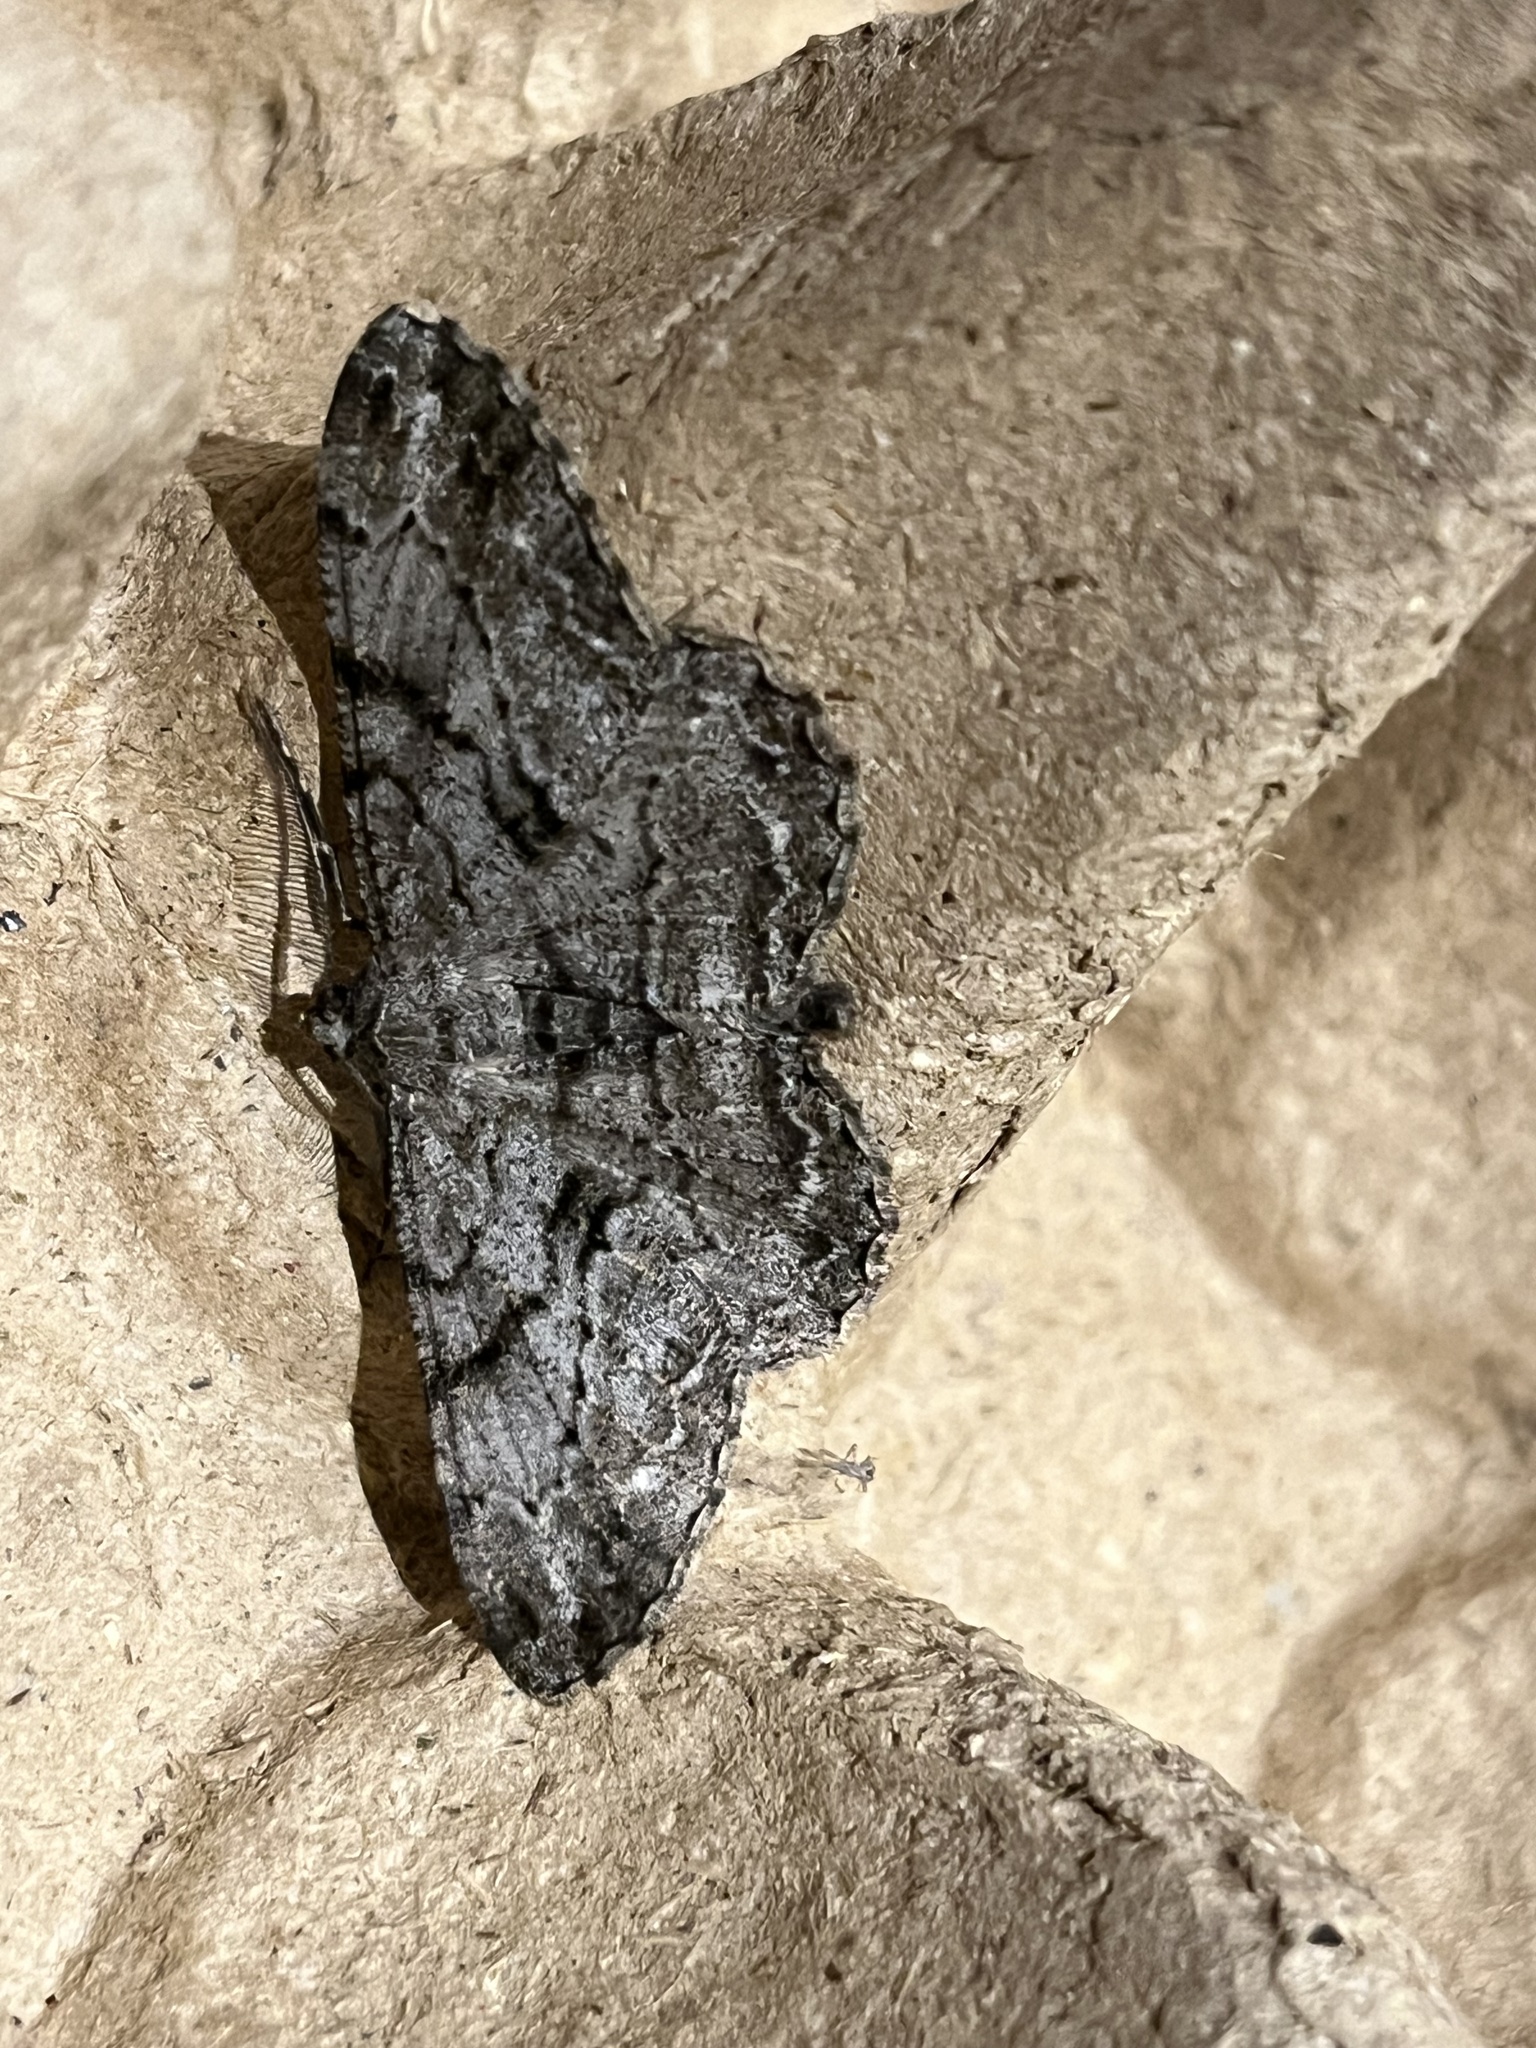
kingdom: Animalia
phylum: Arthropoda
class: Insecta
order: Lepidoptera
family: Geometridae
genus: Peribatodes
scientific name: Peribatodes rhomboidaria
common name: Willow beauty
